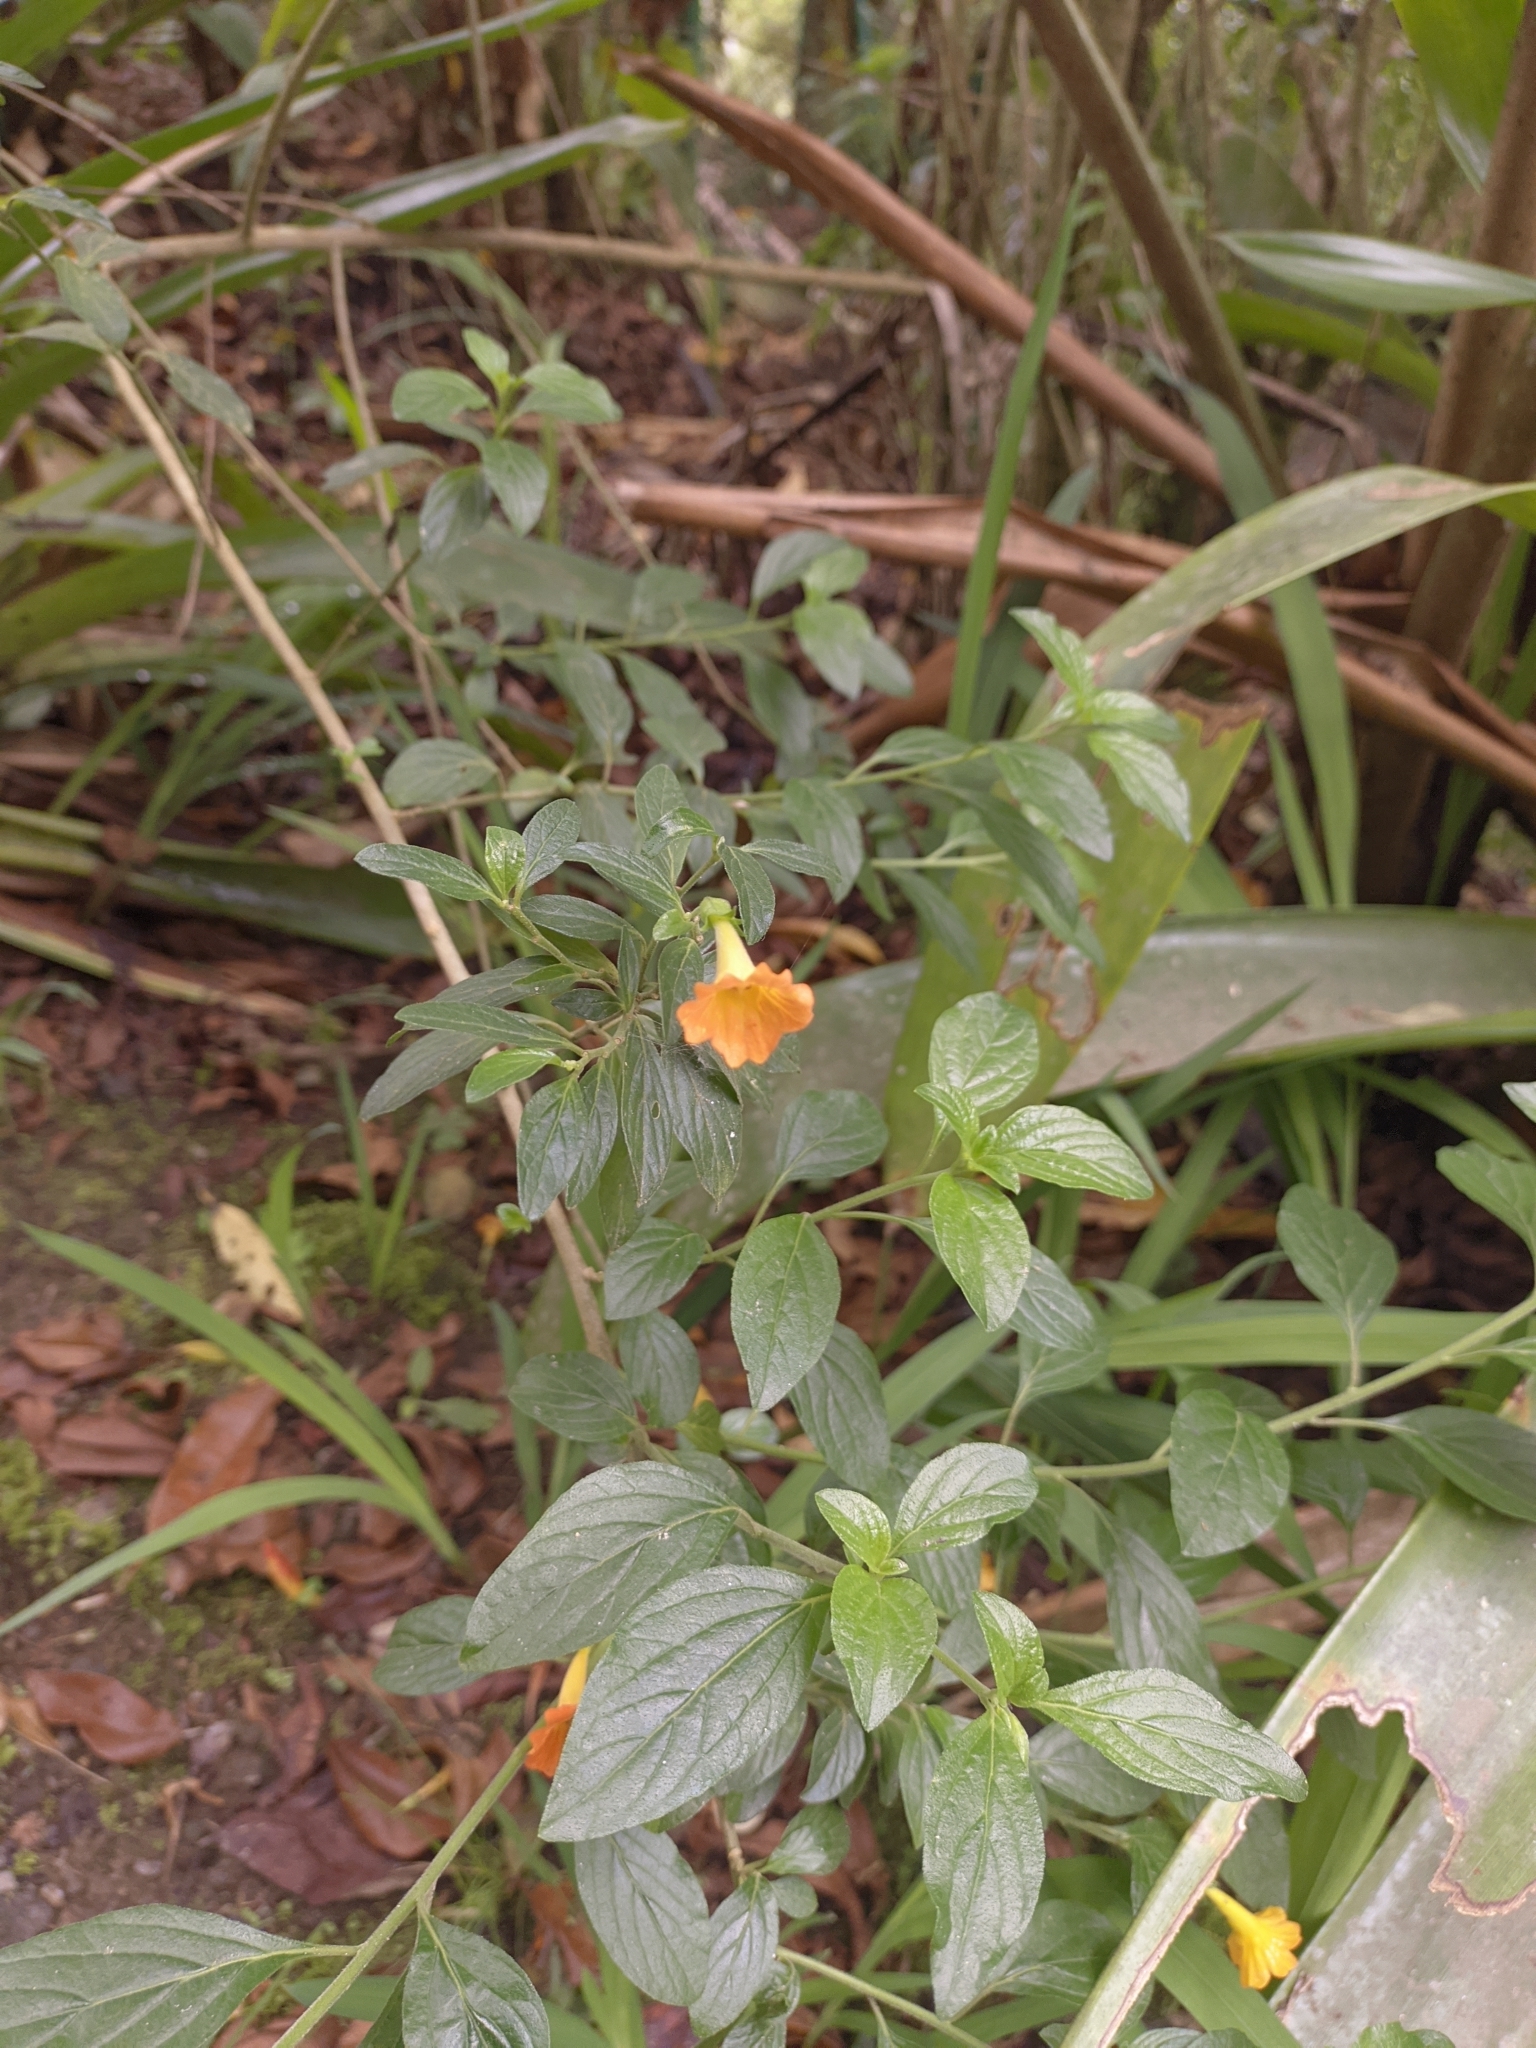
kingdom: Plantae
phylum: Tracheophyta
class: Magnoliopsida
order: Solanales
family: Solanaceae
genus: Streptosolen
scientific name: Streptosolen jamesonii
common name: Marmalade bush
